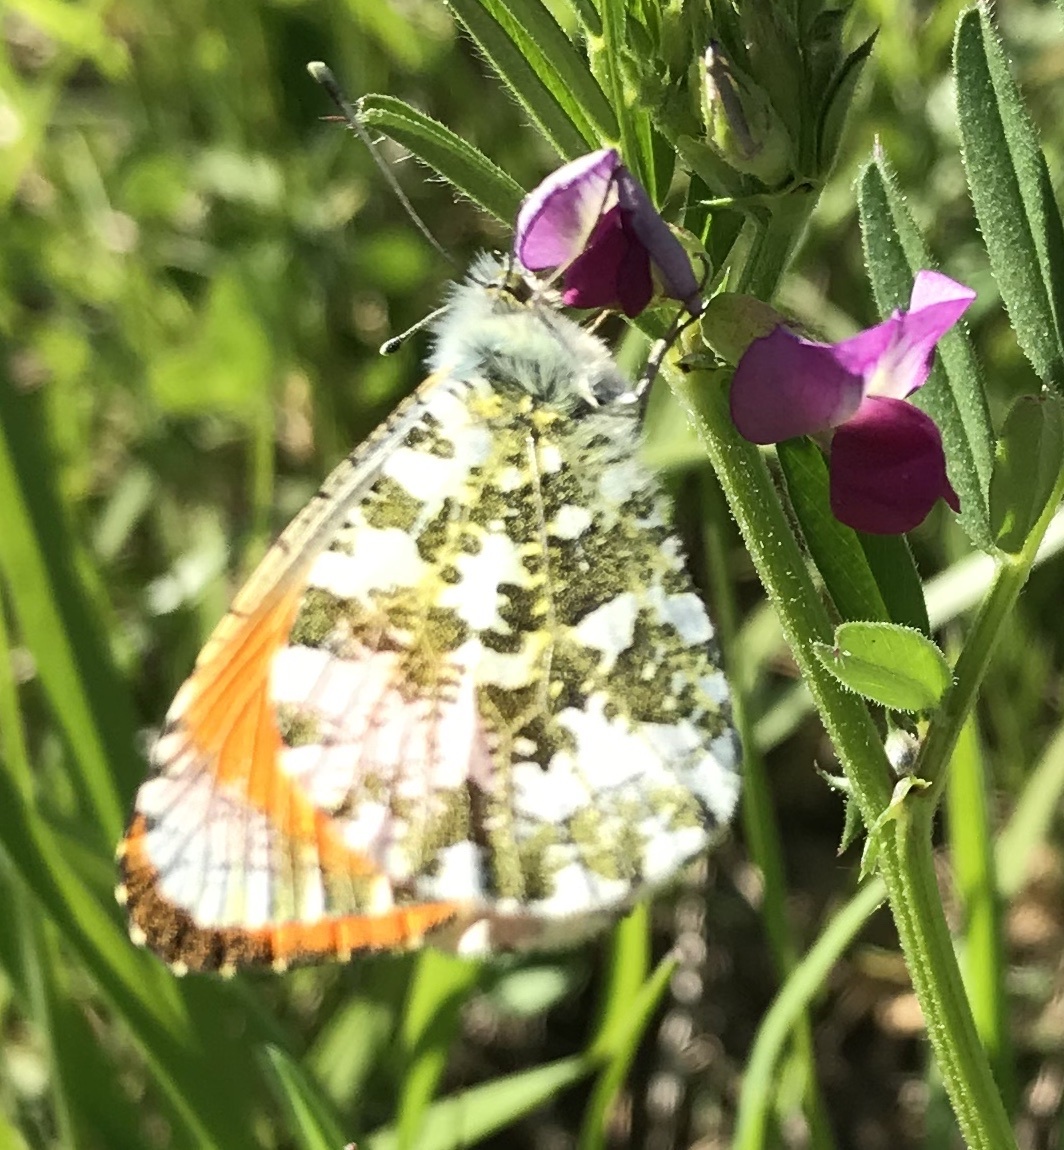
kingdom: Animalia
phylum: Arthropoda
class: Insecta
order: Lepidoptera
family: Pieridae
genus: Anthocharis
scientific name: Anthocharis cardamines
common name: Orange-tip
